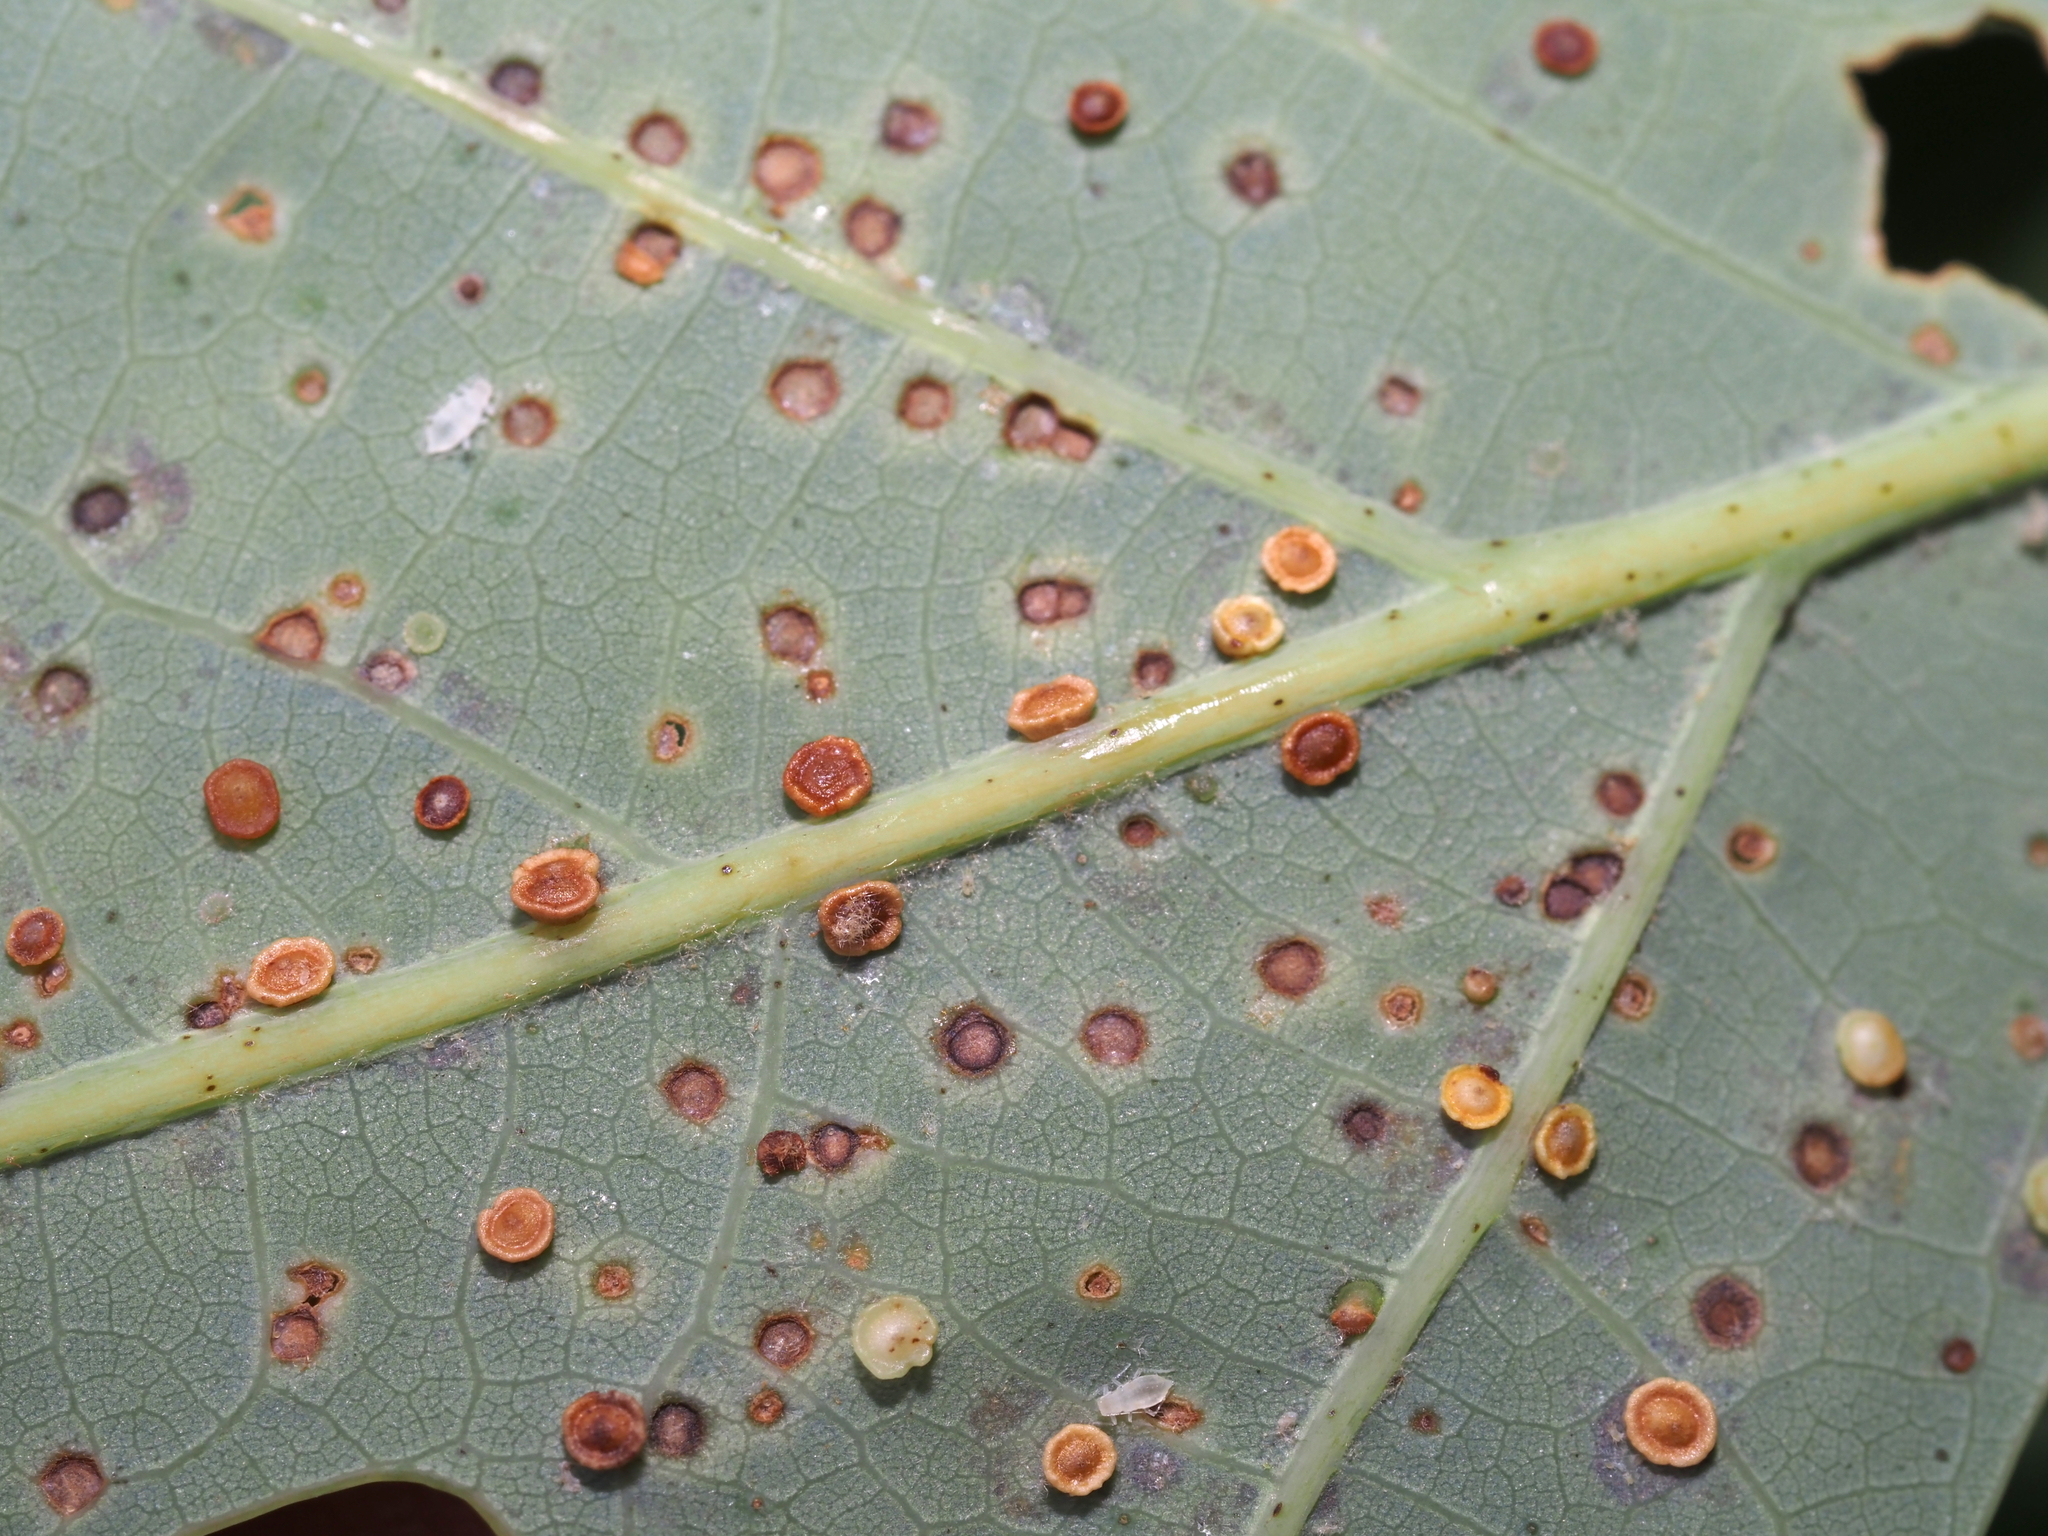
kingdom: Animalia
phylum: Arthropoda
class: Insecta
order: Hymenoptera
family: Cynipidae
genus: Neuroterus
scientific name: Neuroterus
